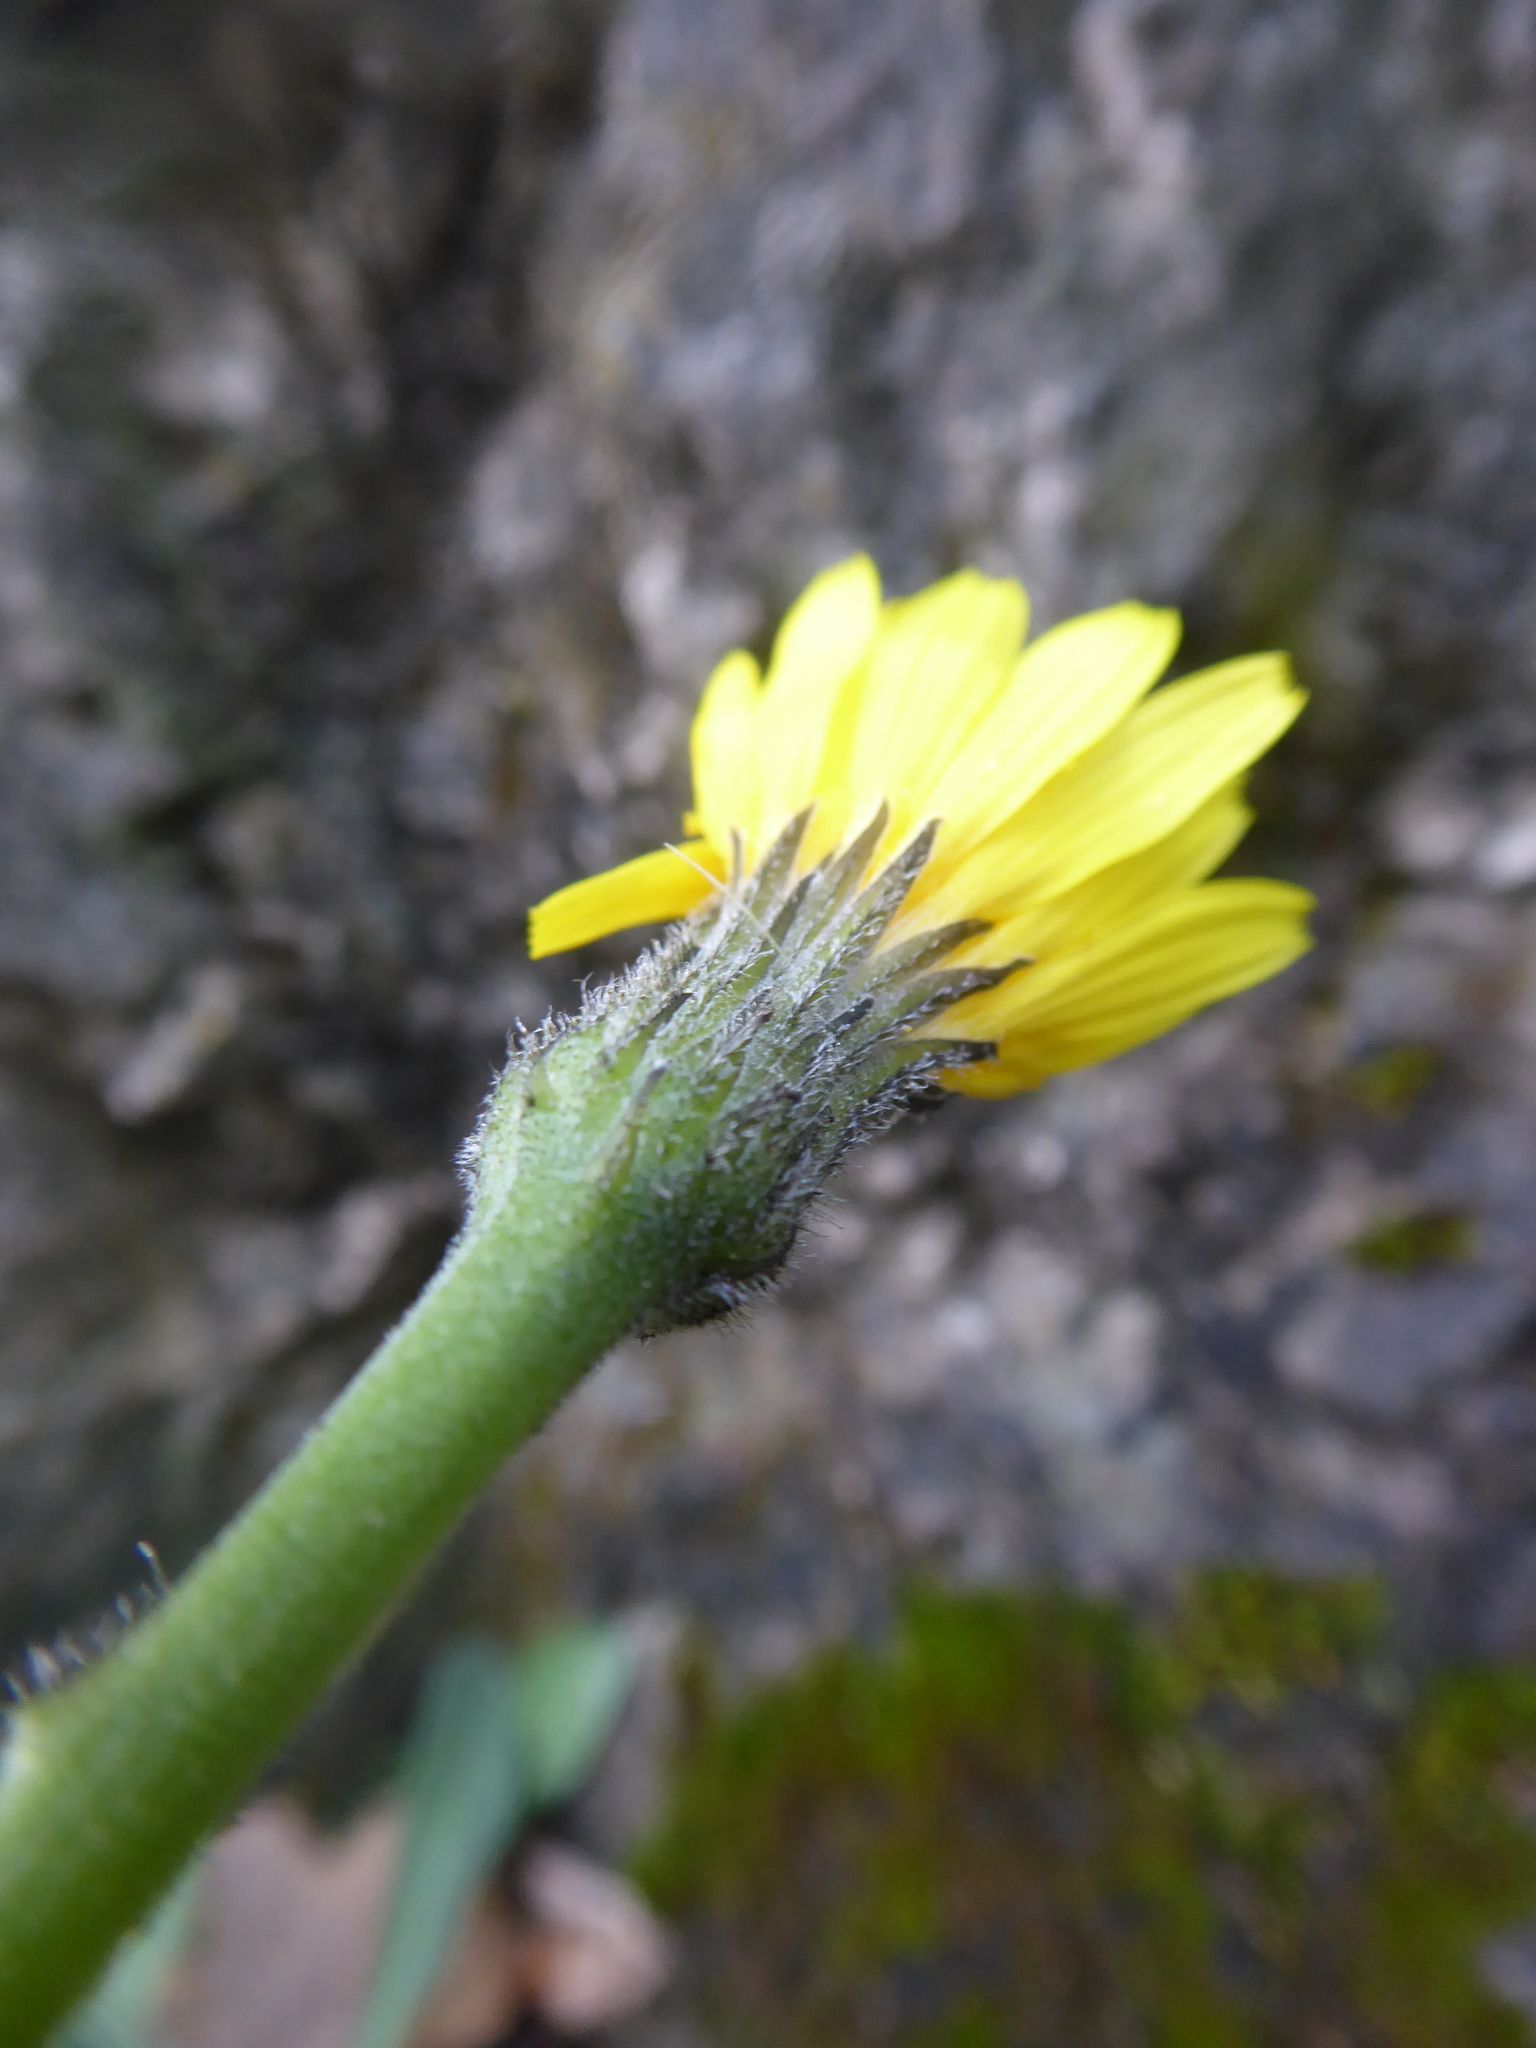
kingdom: Plantae
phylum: Tracheophyta
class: Magnoliopsida
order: Asterales
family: Asteraceae
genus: Leontodon
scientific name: Leontodon incanus
